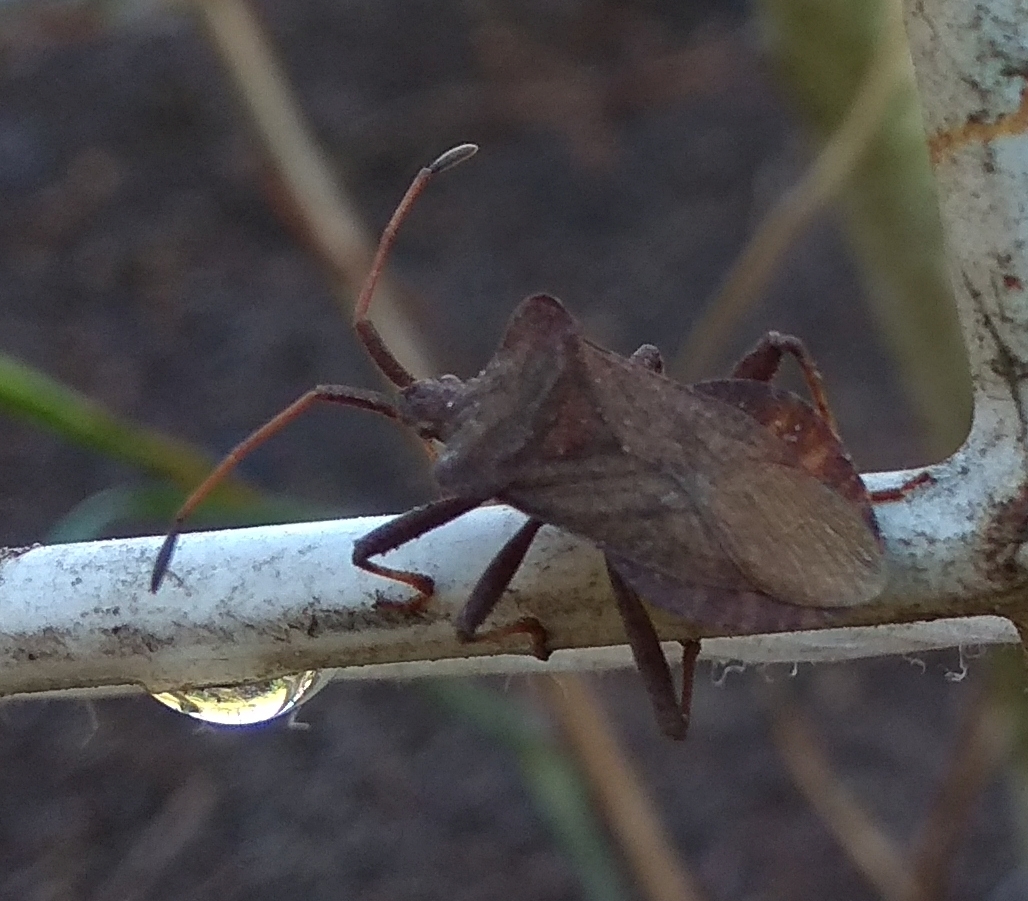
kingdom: Animalia
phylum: Arthropoda
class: Insecta
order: Hemiptera
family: Coreidae
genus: Coreus
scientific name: Coreus marginatus
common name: Dock bug
